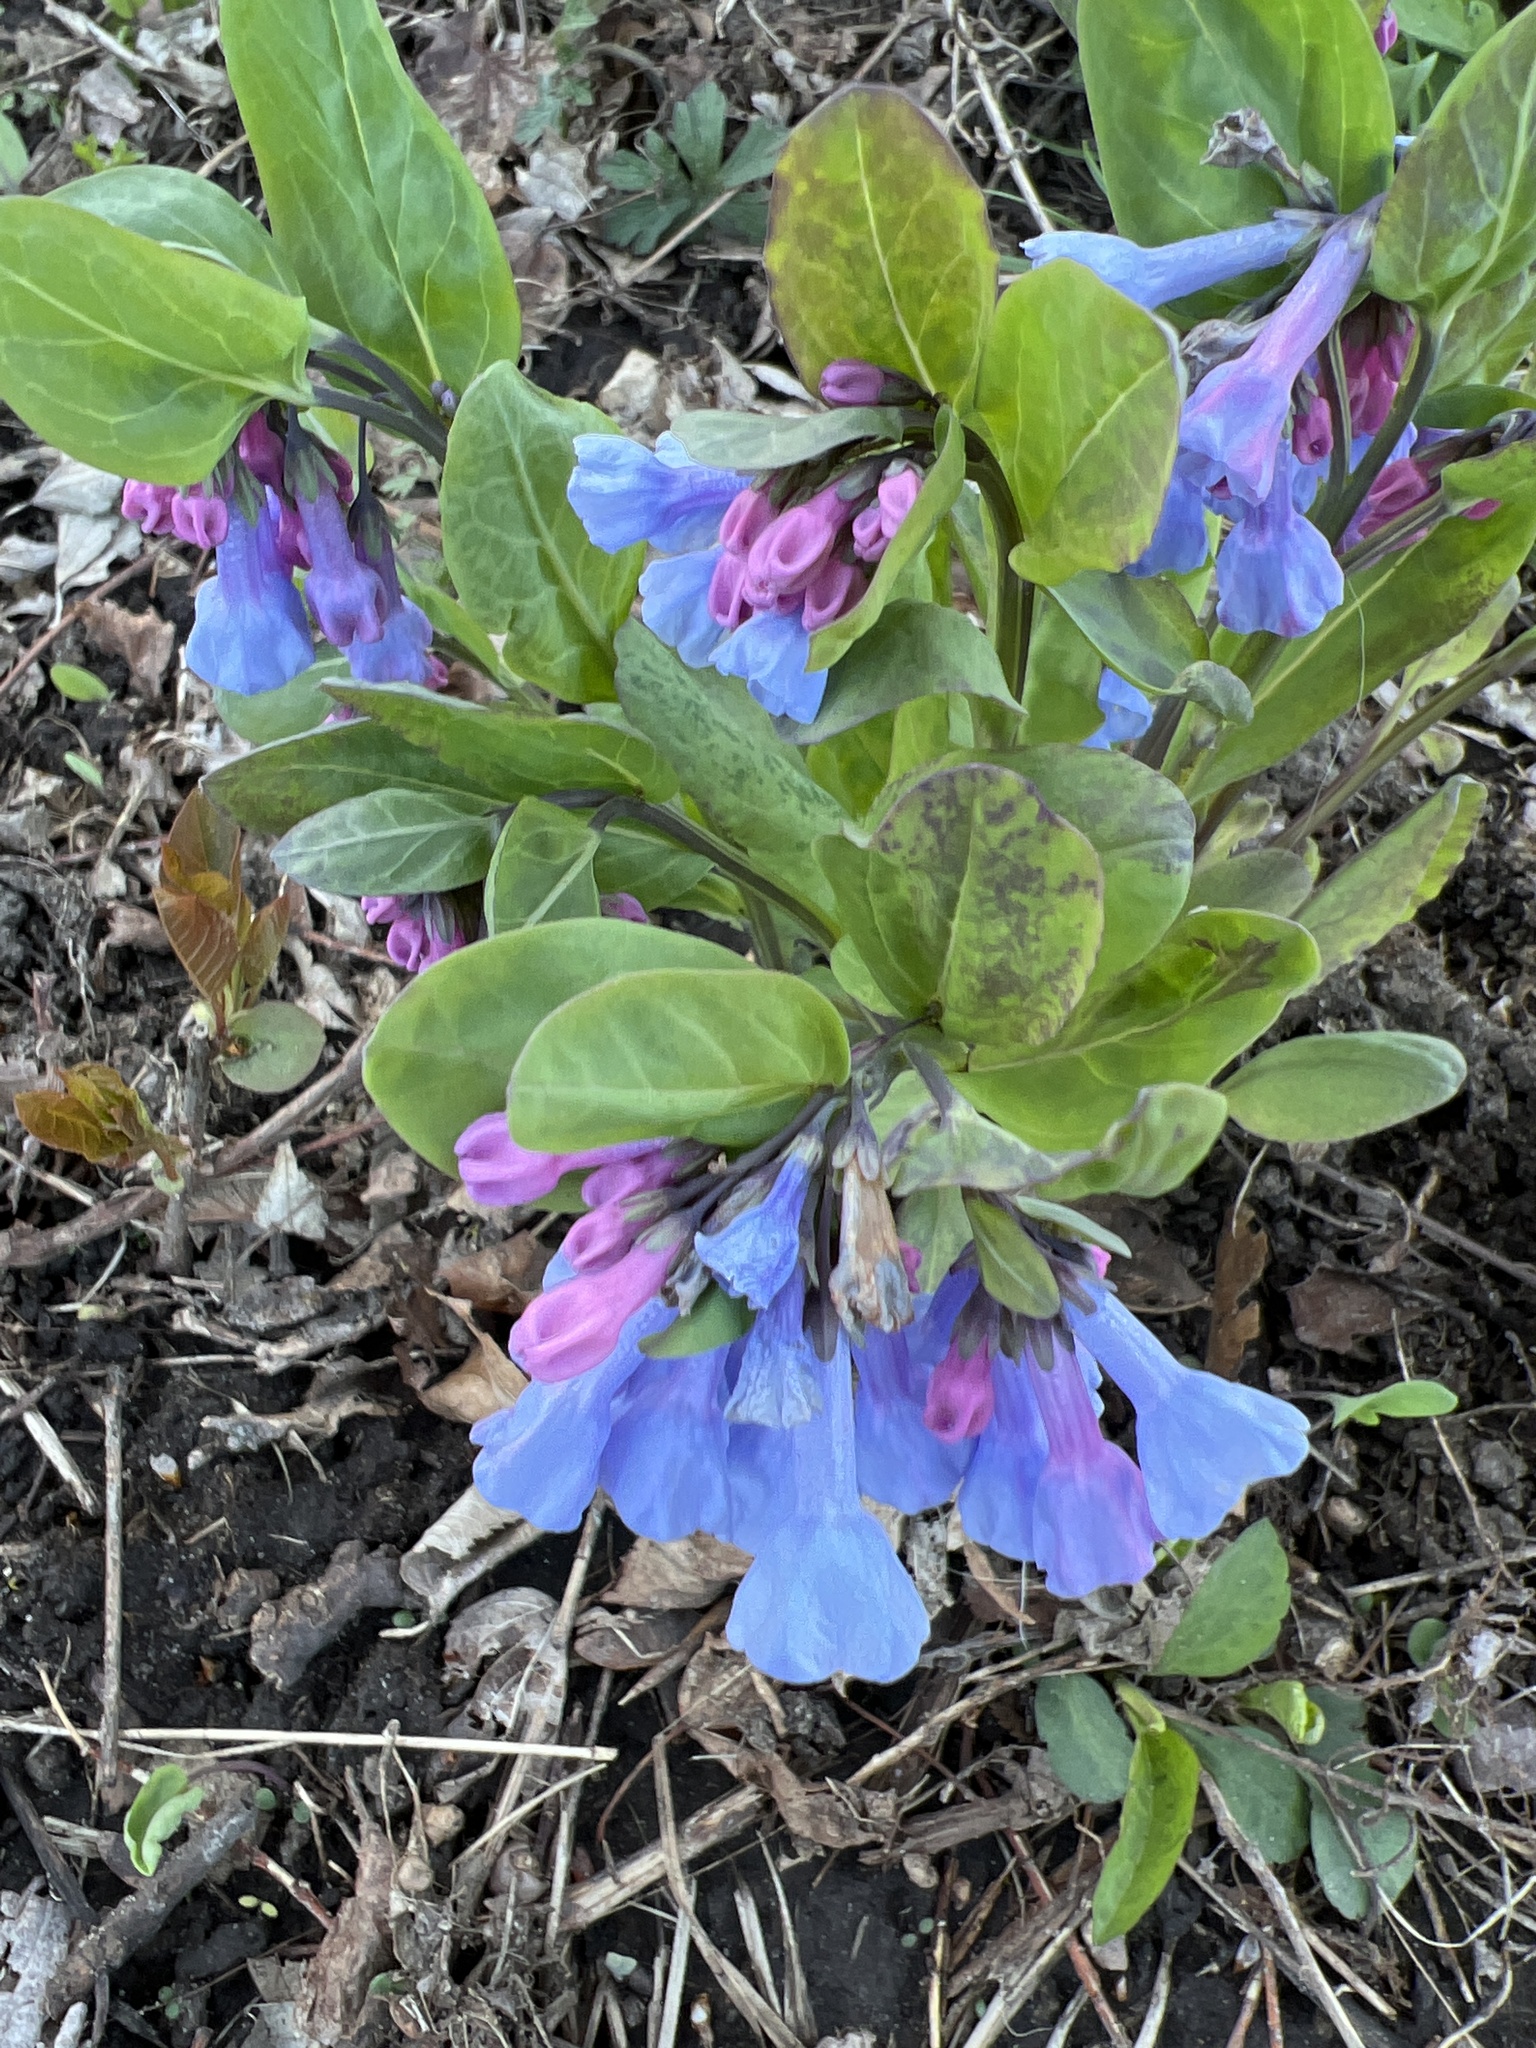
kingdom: Plantae
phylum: Tracheophyta
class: Magnoliopsida
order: Boraginales
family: Boraginaceae
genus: Mertensia
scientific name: Mertensia virginica
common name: Virginia bluebells
